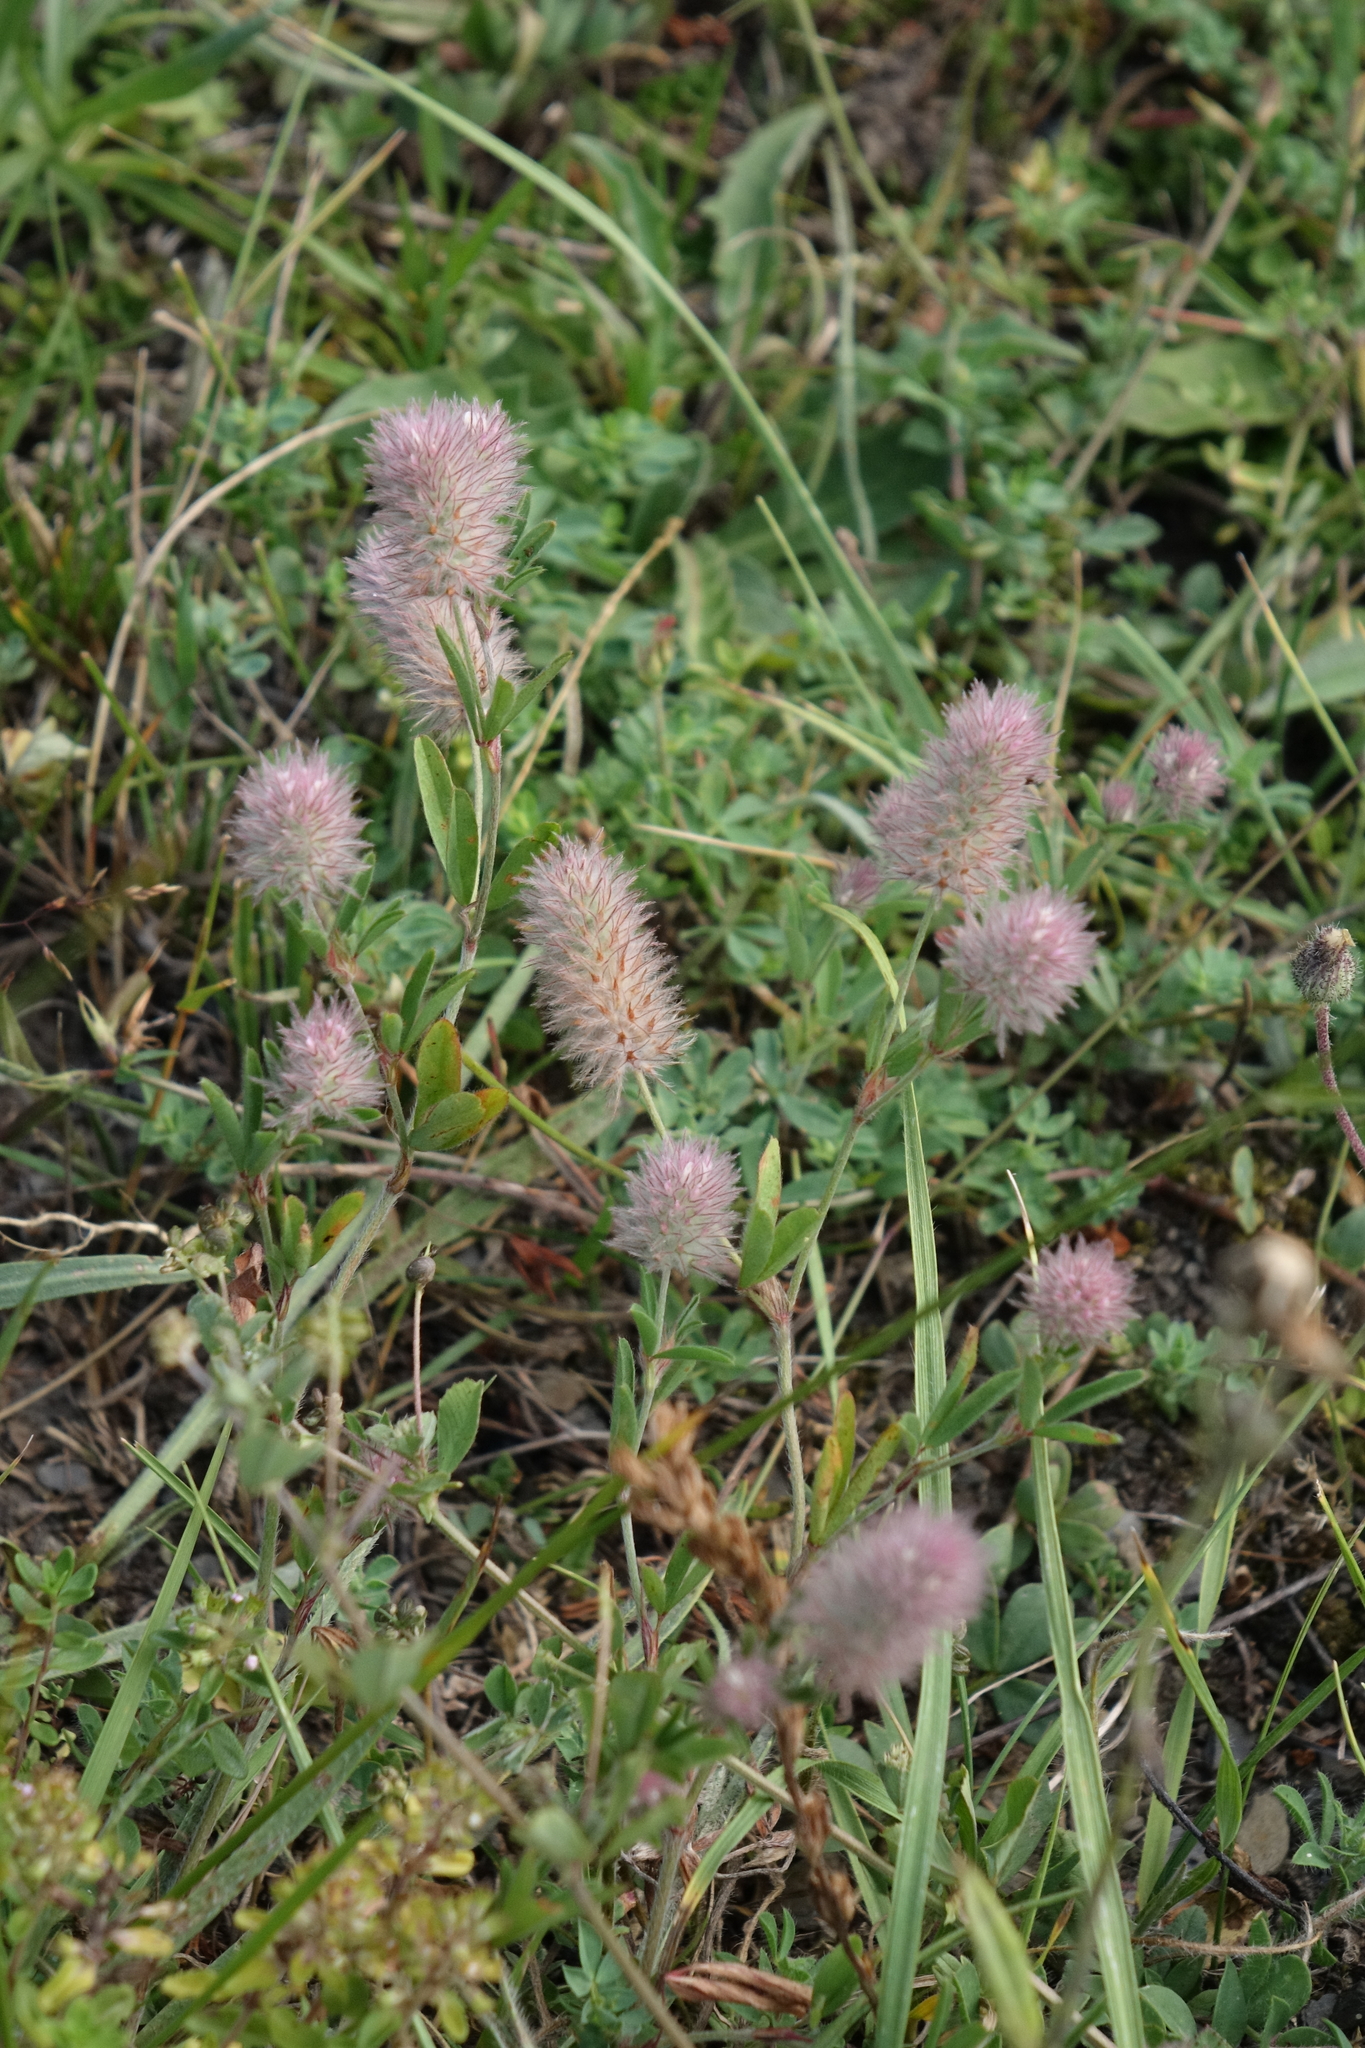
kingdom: Plantae
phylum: Tracheophyta
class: Magnoliopsida
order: Fabales
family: Fabaceae
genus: Trifolium
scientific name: Trifolium arvense
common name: Hare's-foot clover
